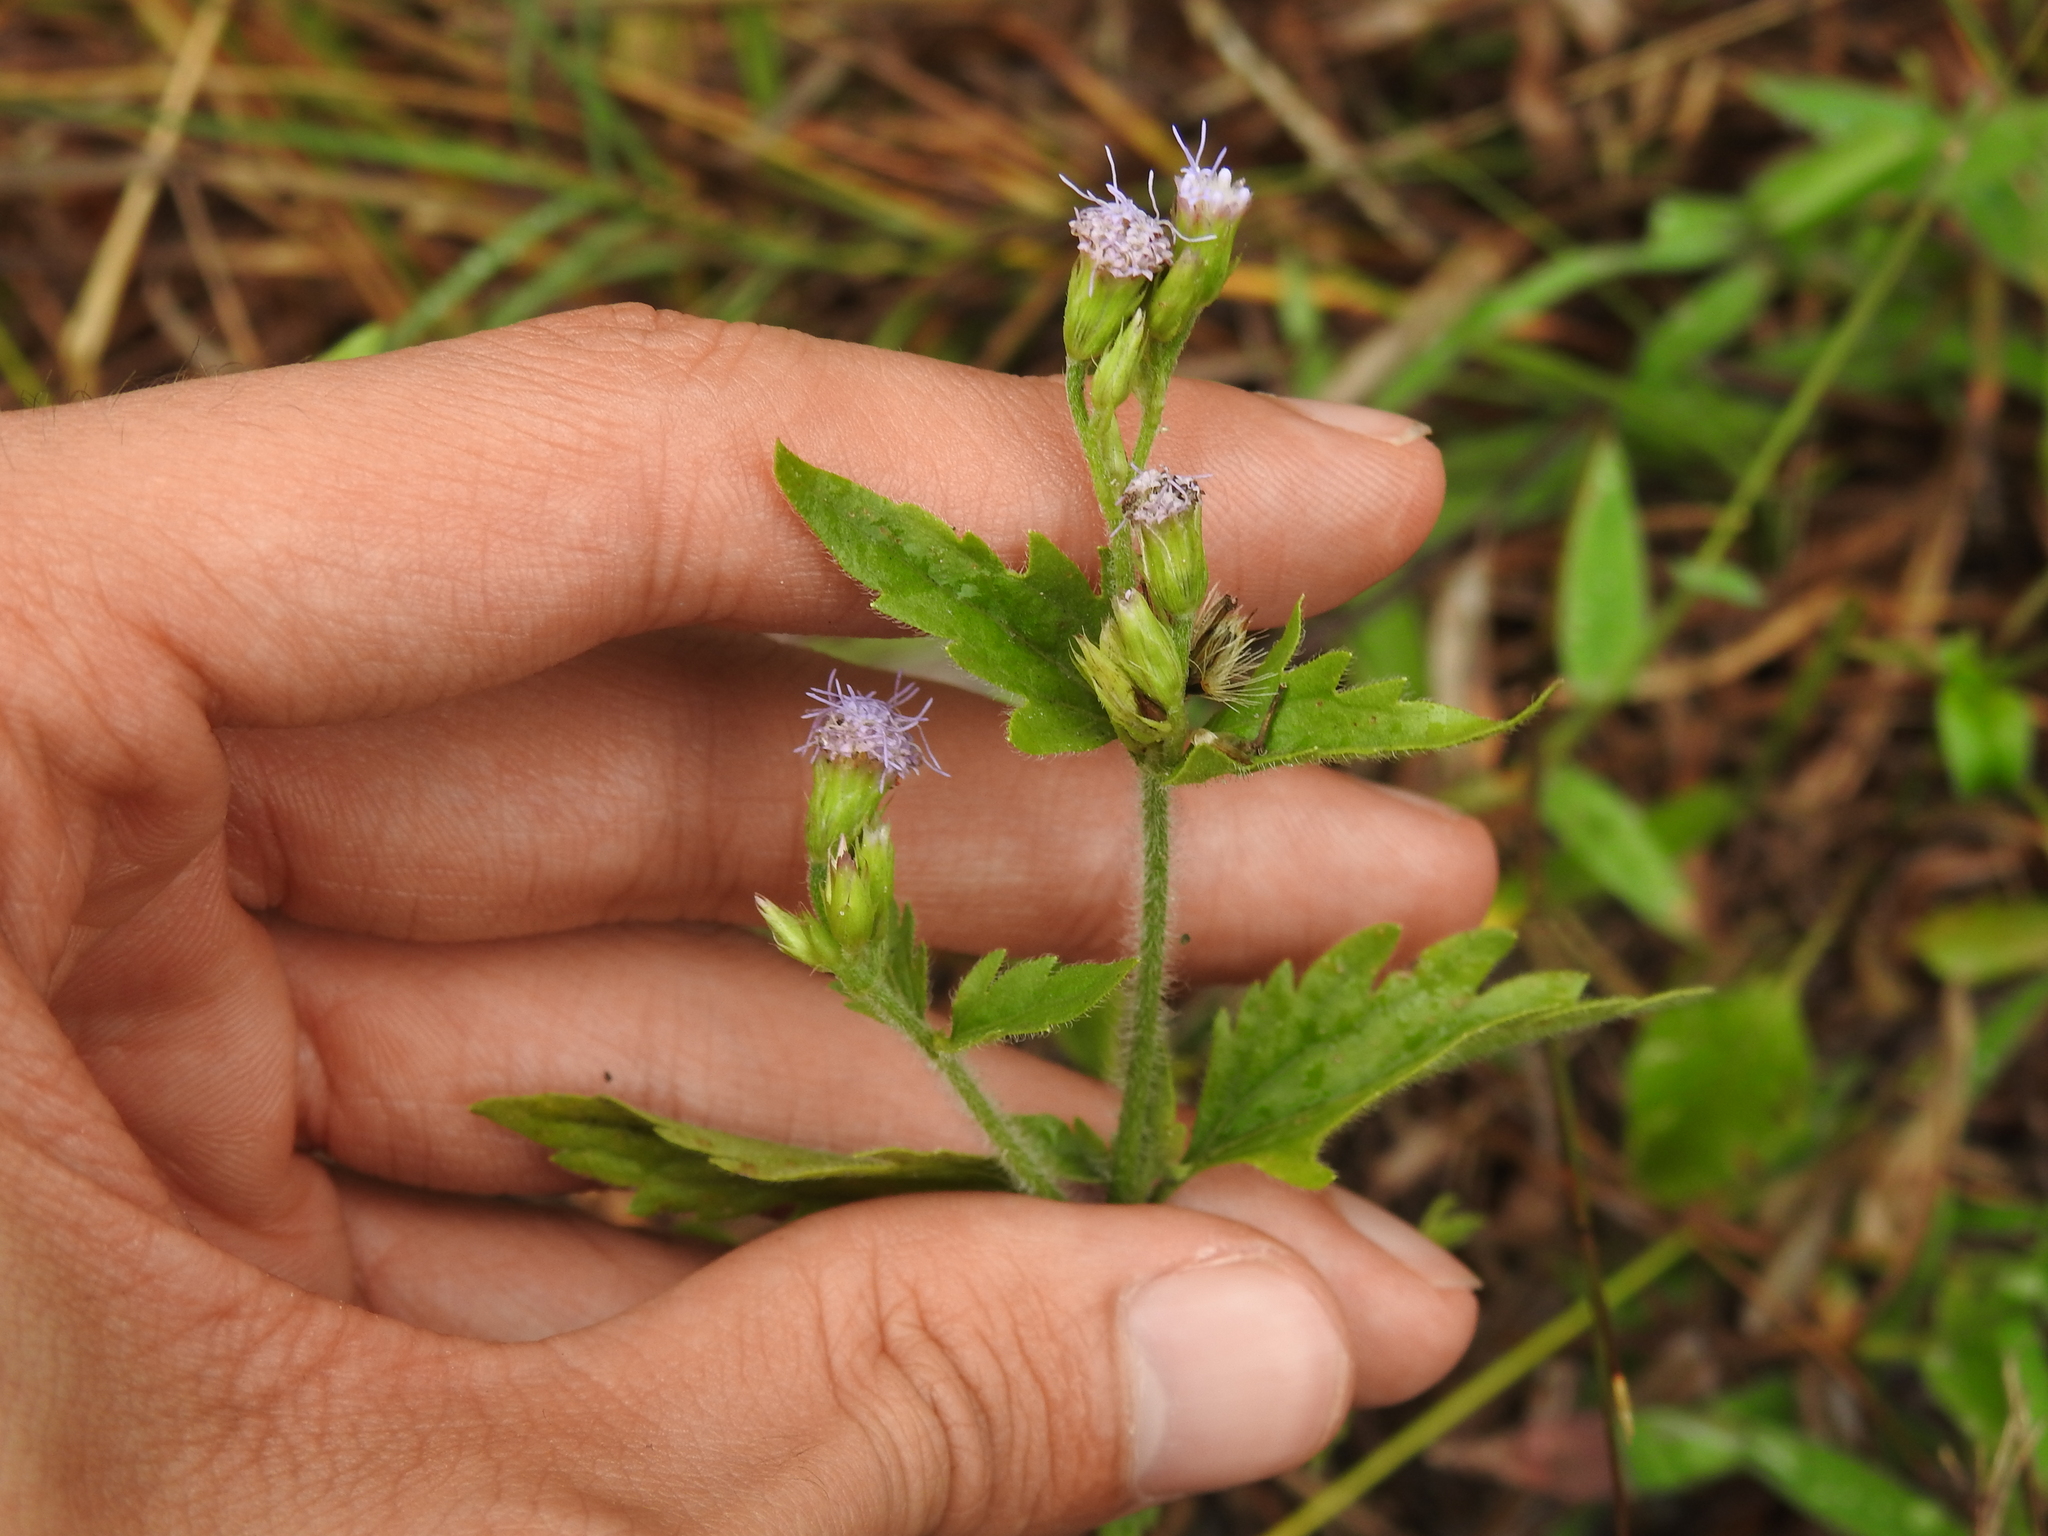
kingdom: Plantae
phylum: Tracheophyta
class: Magnoliopsida
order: Asterales
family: Asteraceae
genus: Praxelis
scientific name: Praxelis clematidea
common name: Praxelis
